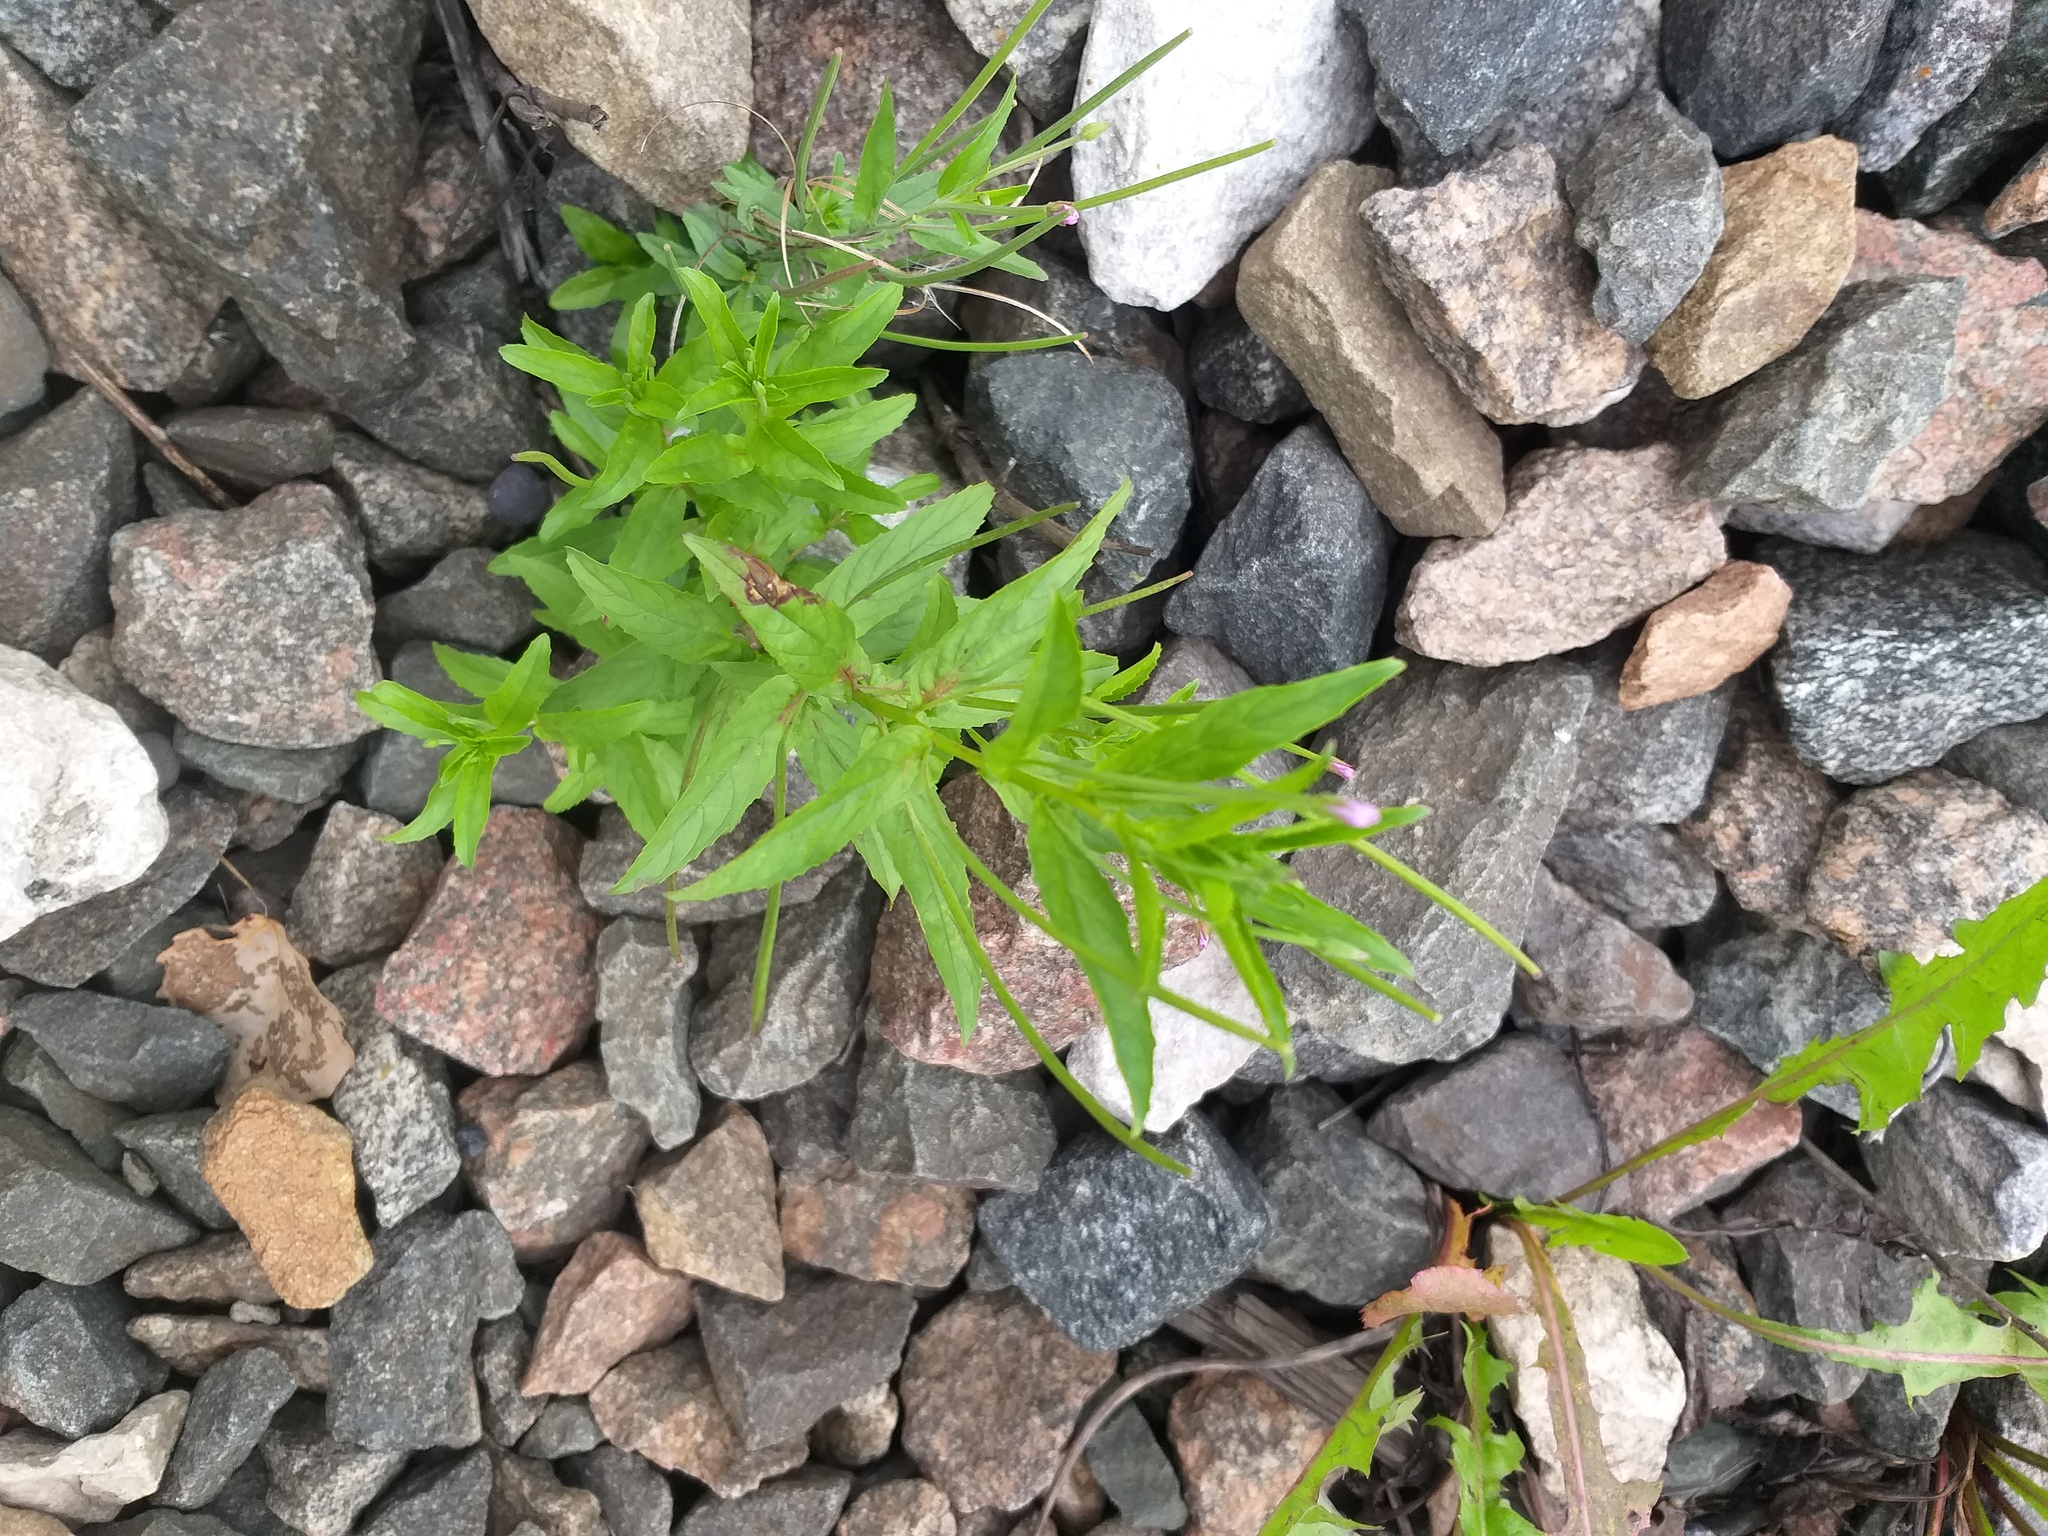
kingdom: Plantae
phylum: Tracheophyta
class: Magnoliopsida
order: Myrtales
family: Onagraceae
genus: Epilobium
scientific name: Epilobium ciliatum
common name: American willowherb
